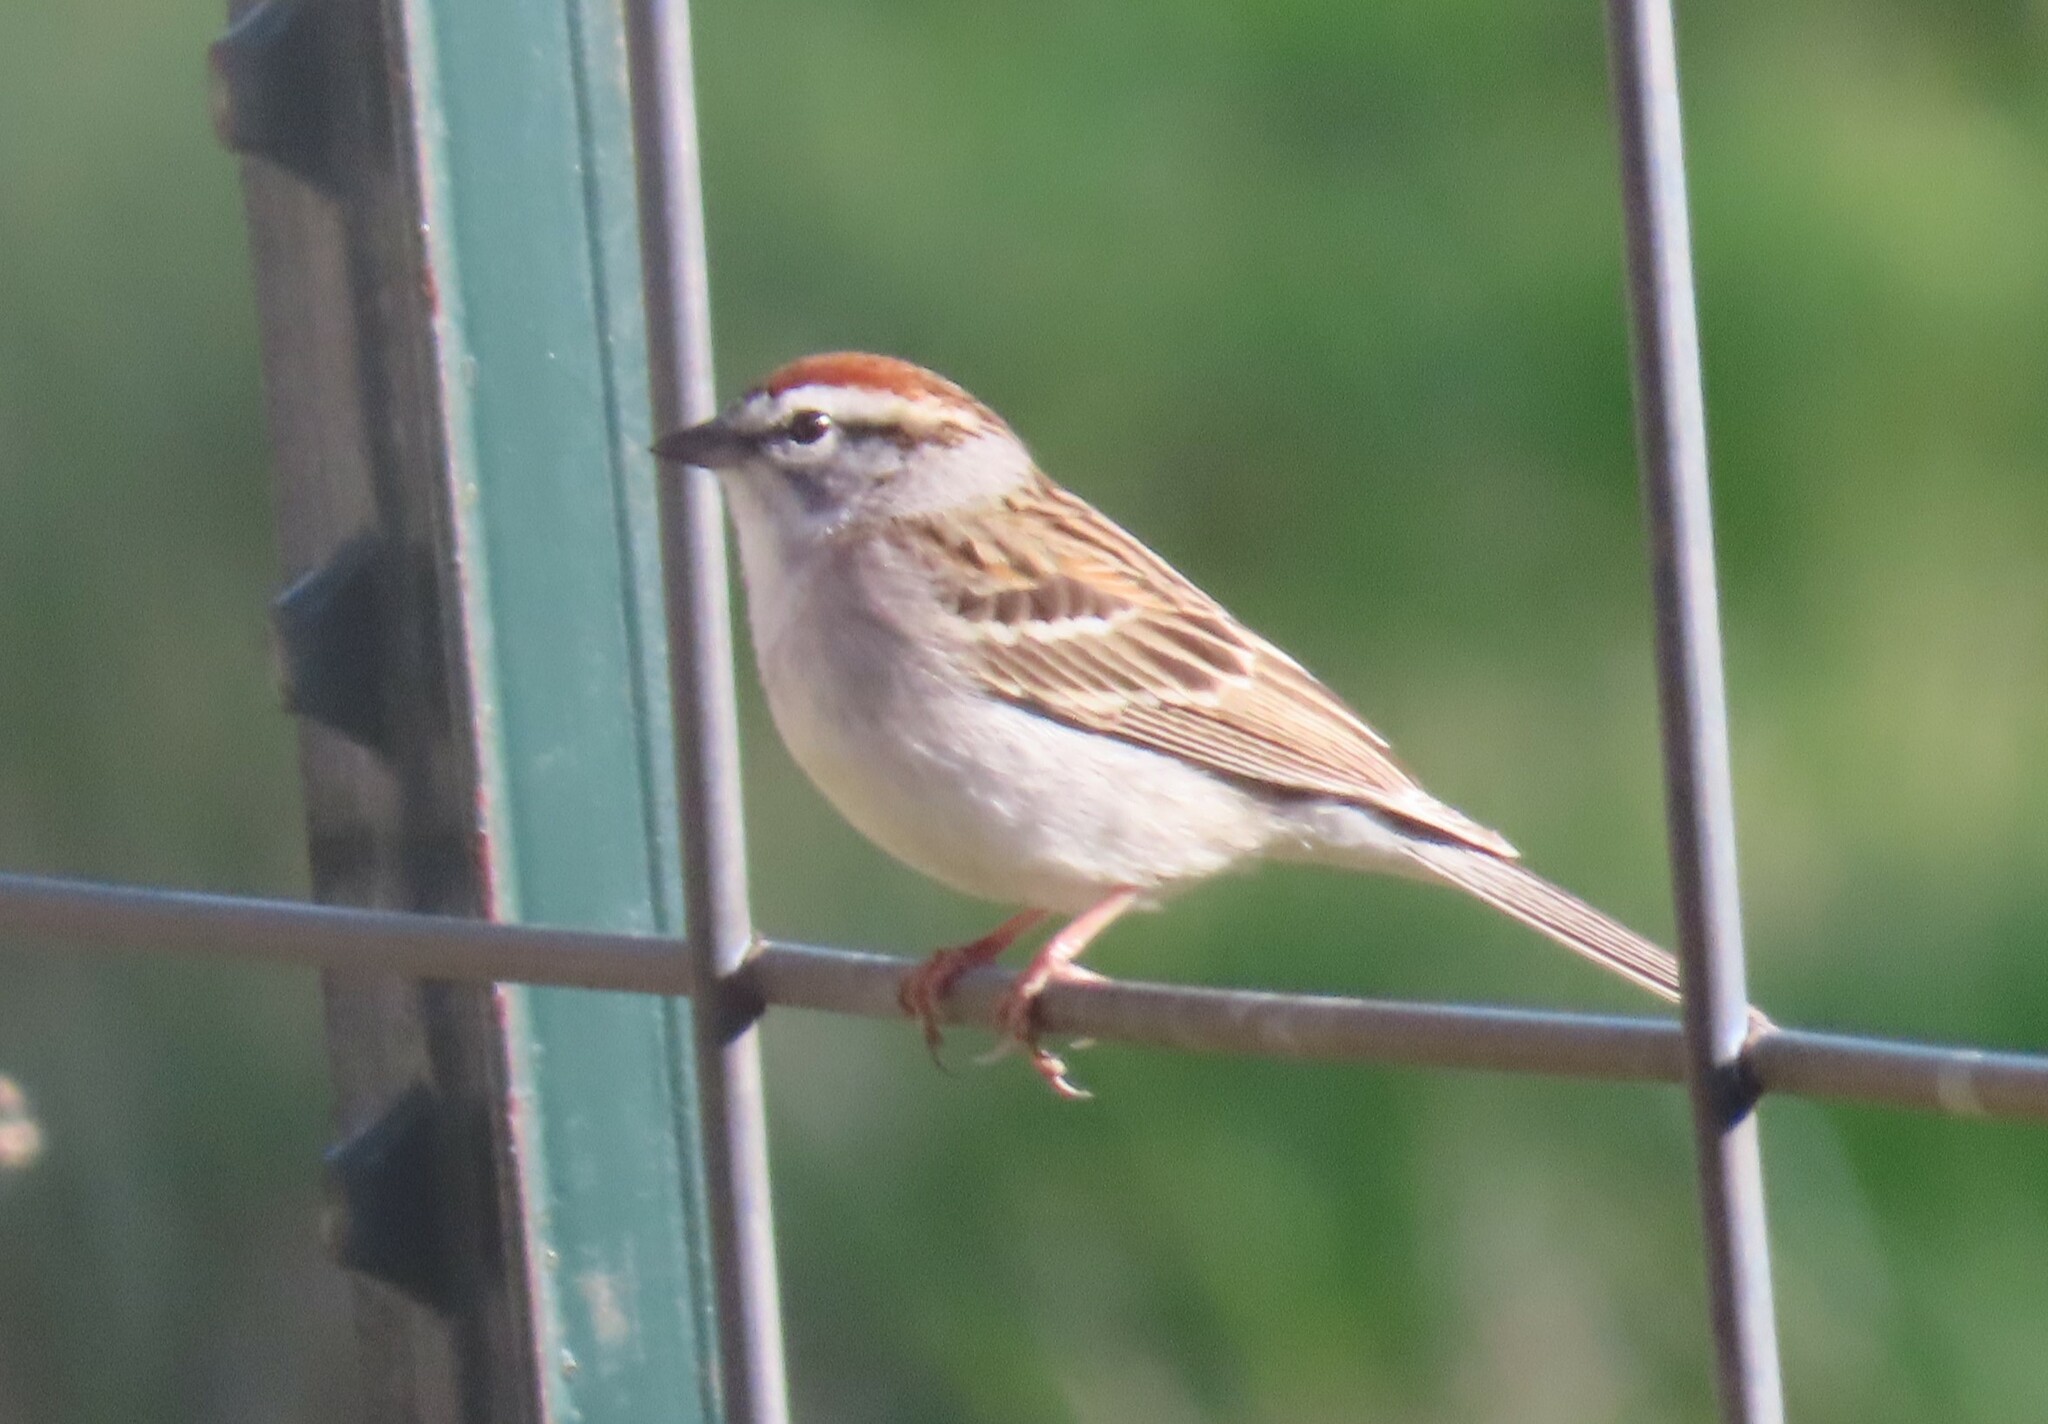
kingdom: Animalia
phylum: Chordata
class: Aves
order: Passeriformes
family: Passerellidae
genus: Spizella
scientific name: Spizella passerina
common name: Chipping sparrow
